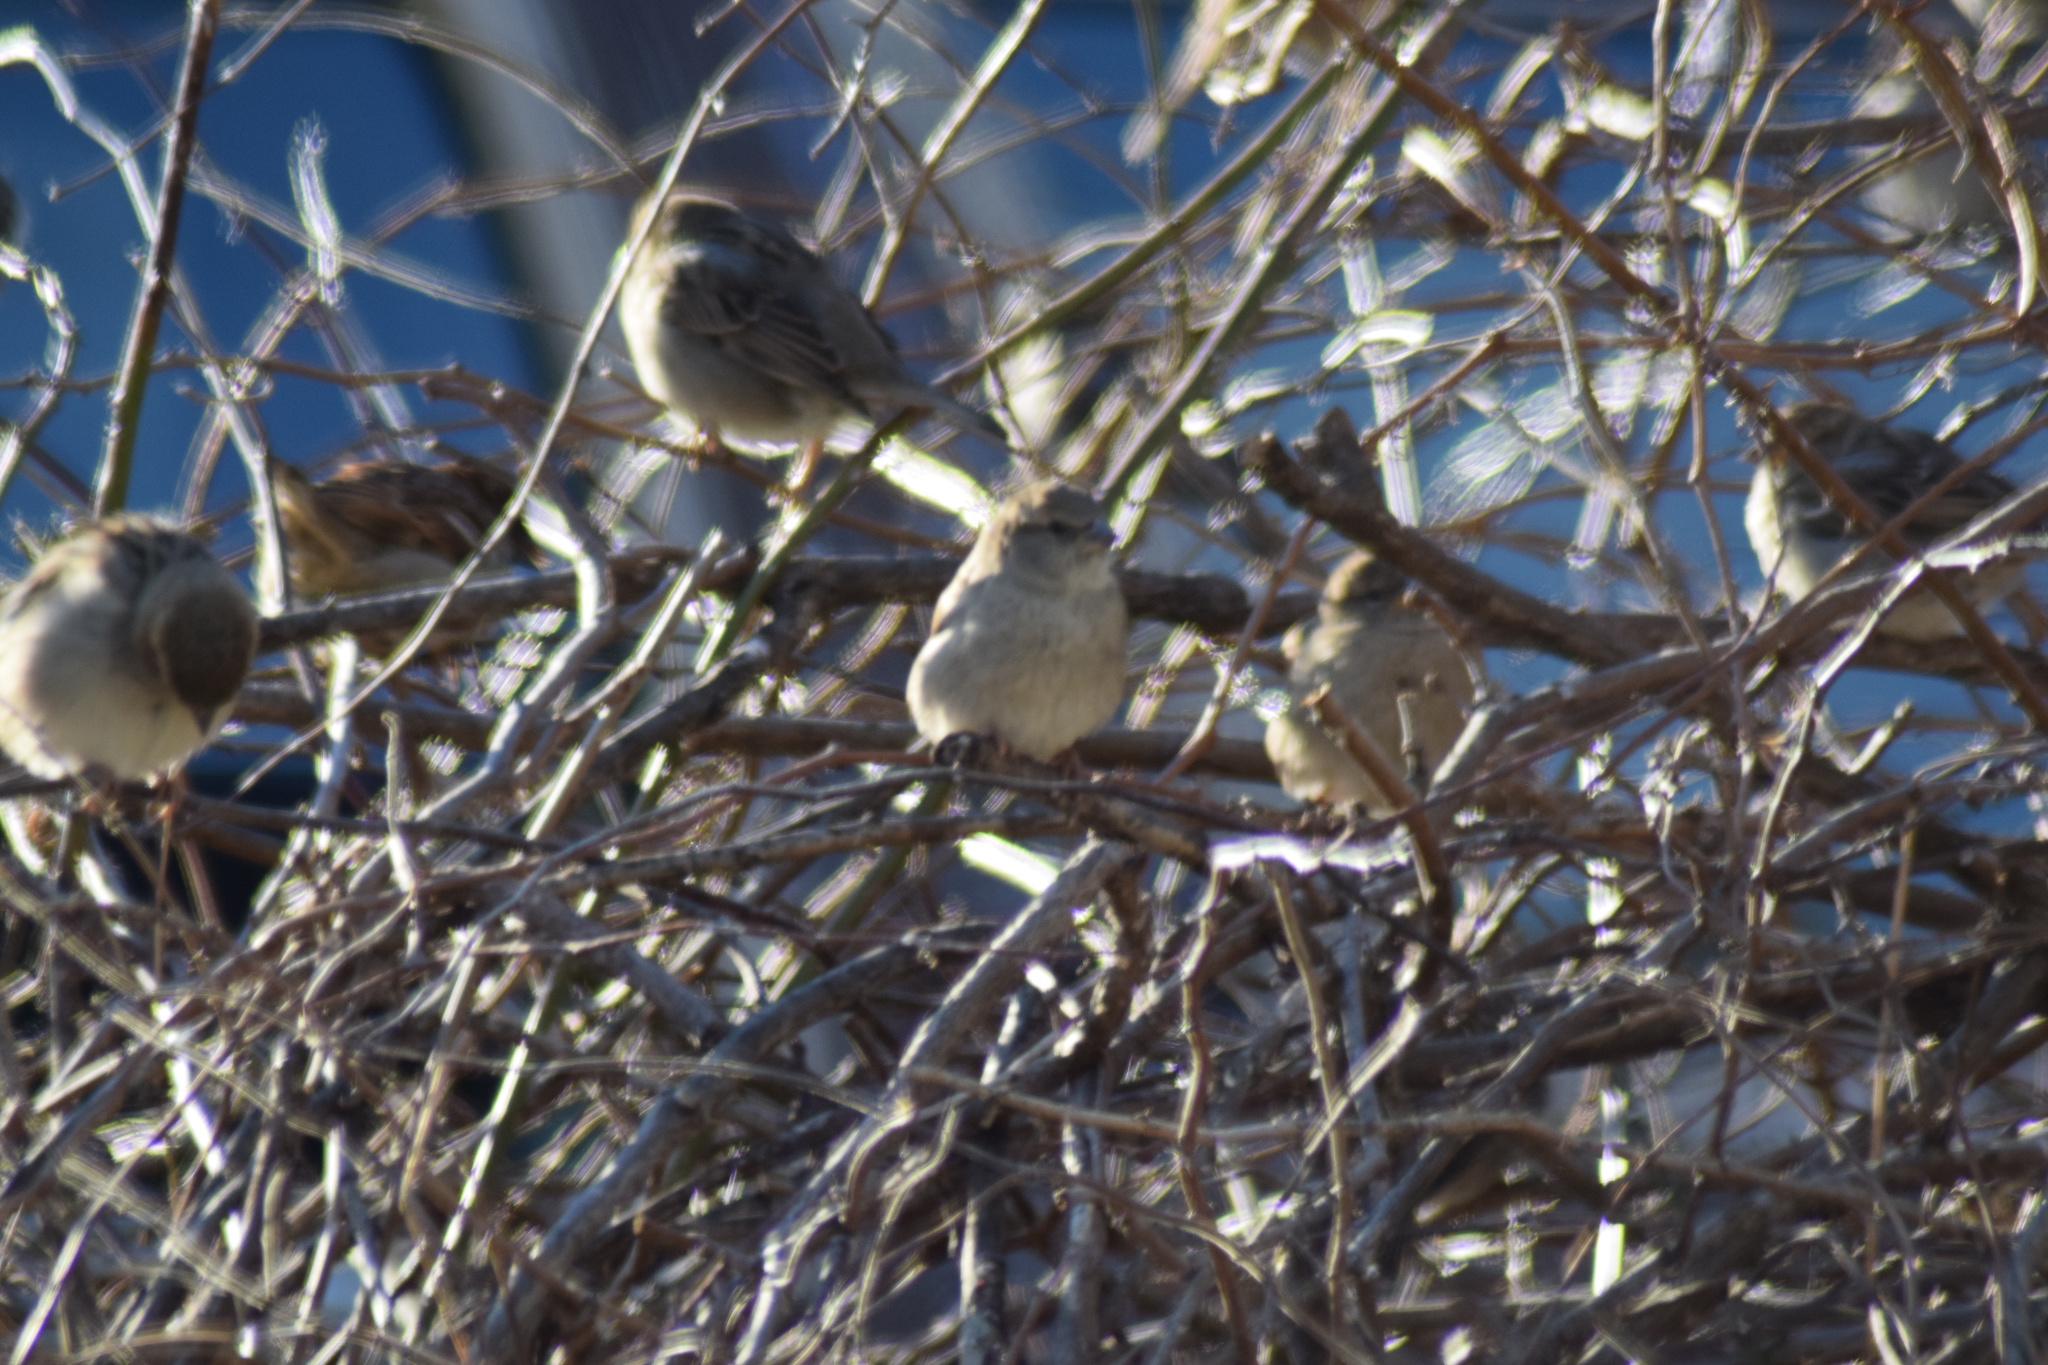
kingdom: Animalia
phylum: Chordata
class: Aves
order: Passeriformes
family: Passeridae
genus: Passer
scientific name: Passer domesticus
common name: House sparrow
